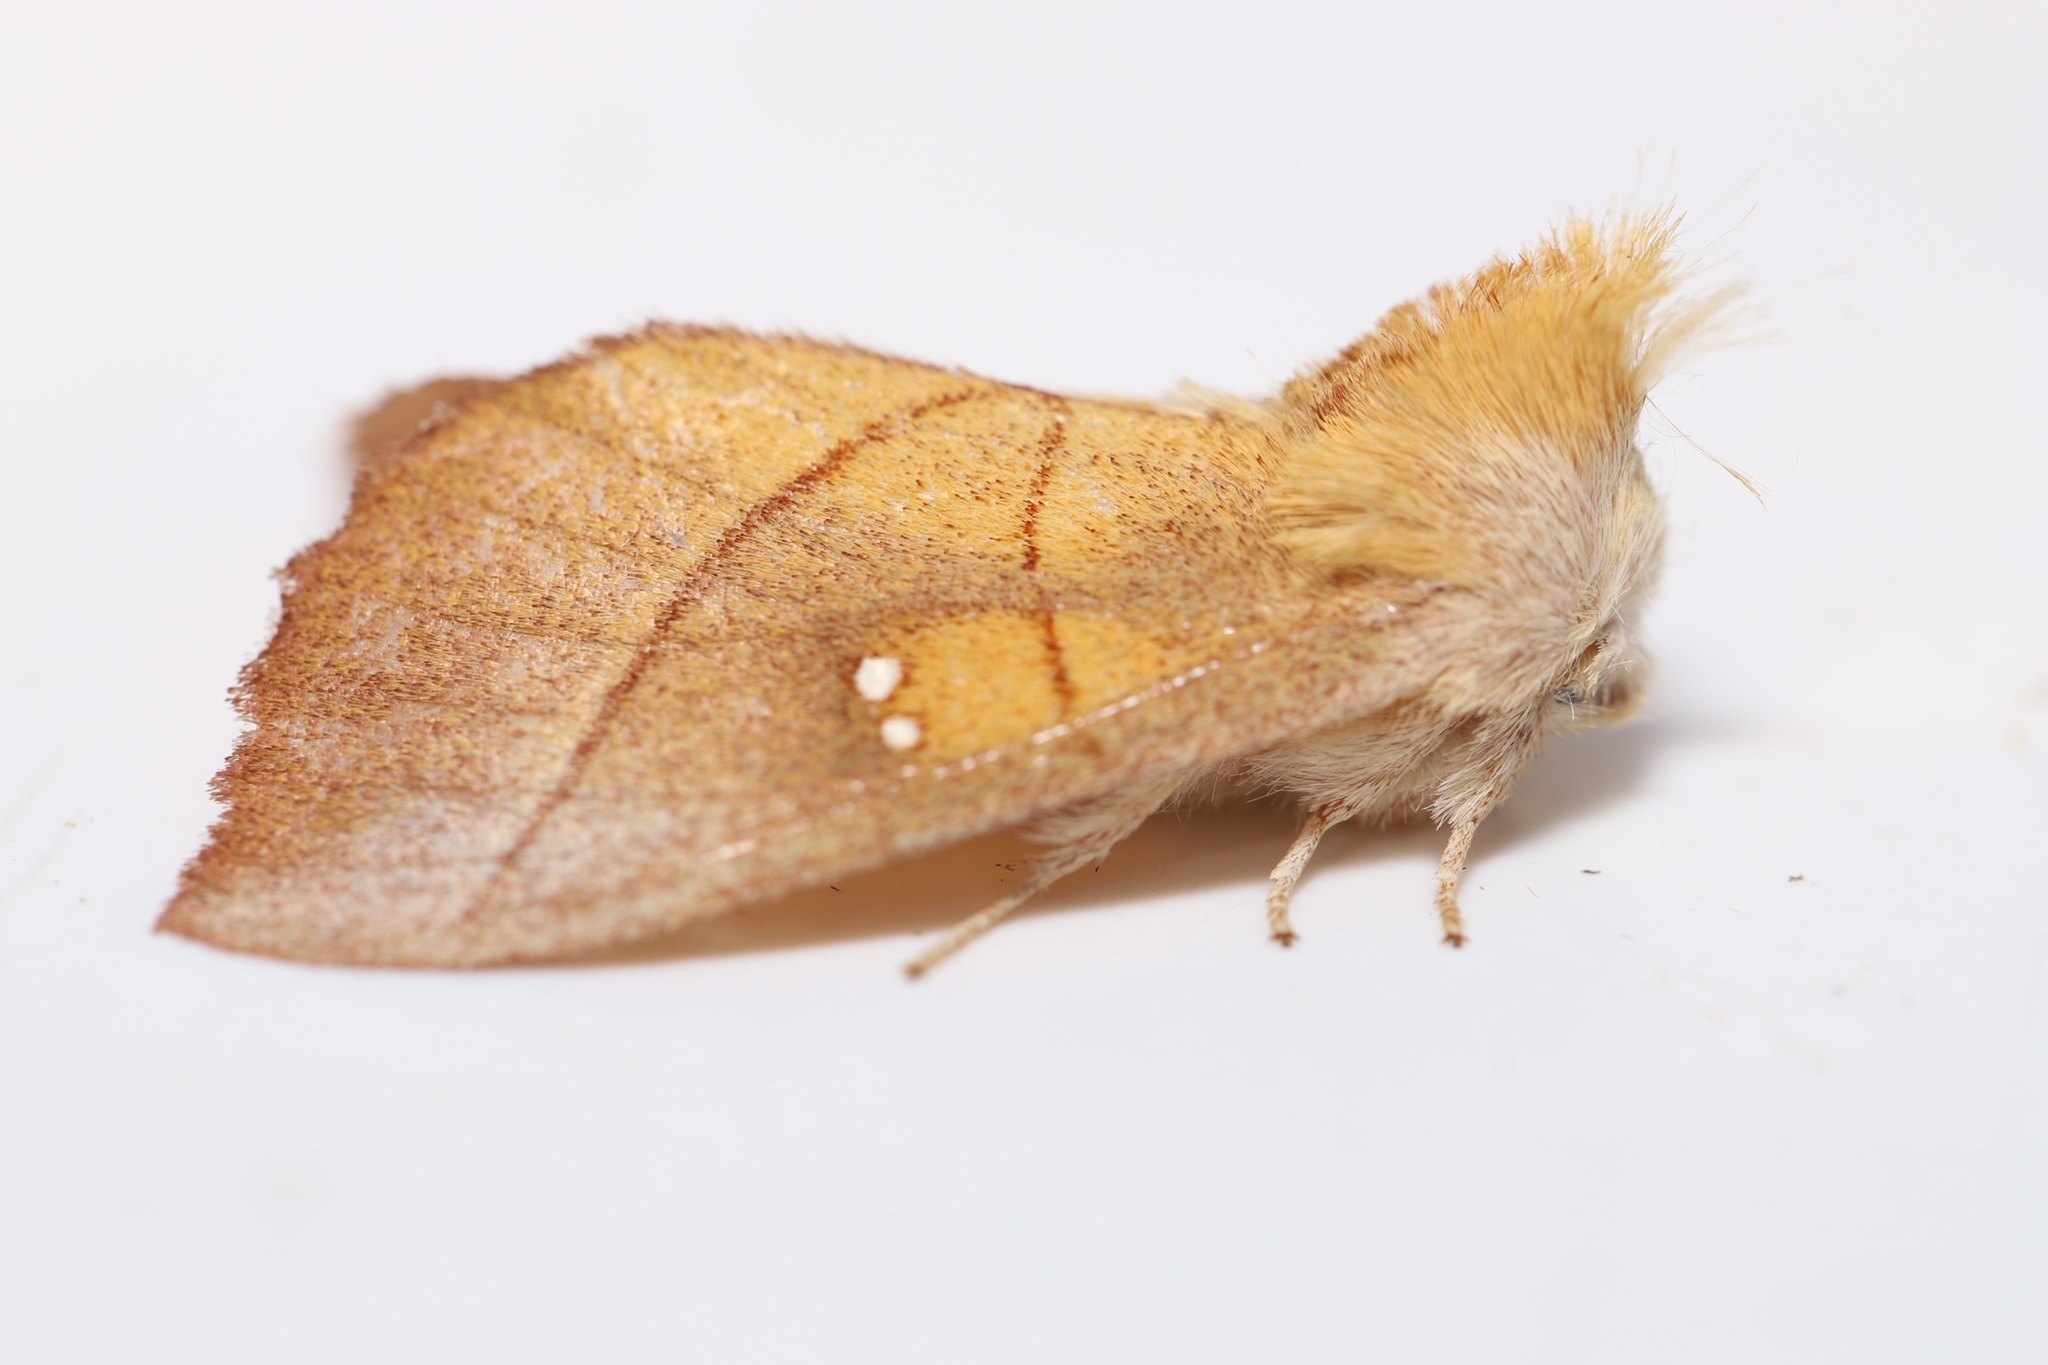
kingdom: Animalia
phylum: Arthropoda
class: Insecta
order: Lepidoptera
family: Notodontidae
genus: Nadata
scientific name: Nadata gibbosa
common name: White-dotted prominent
